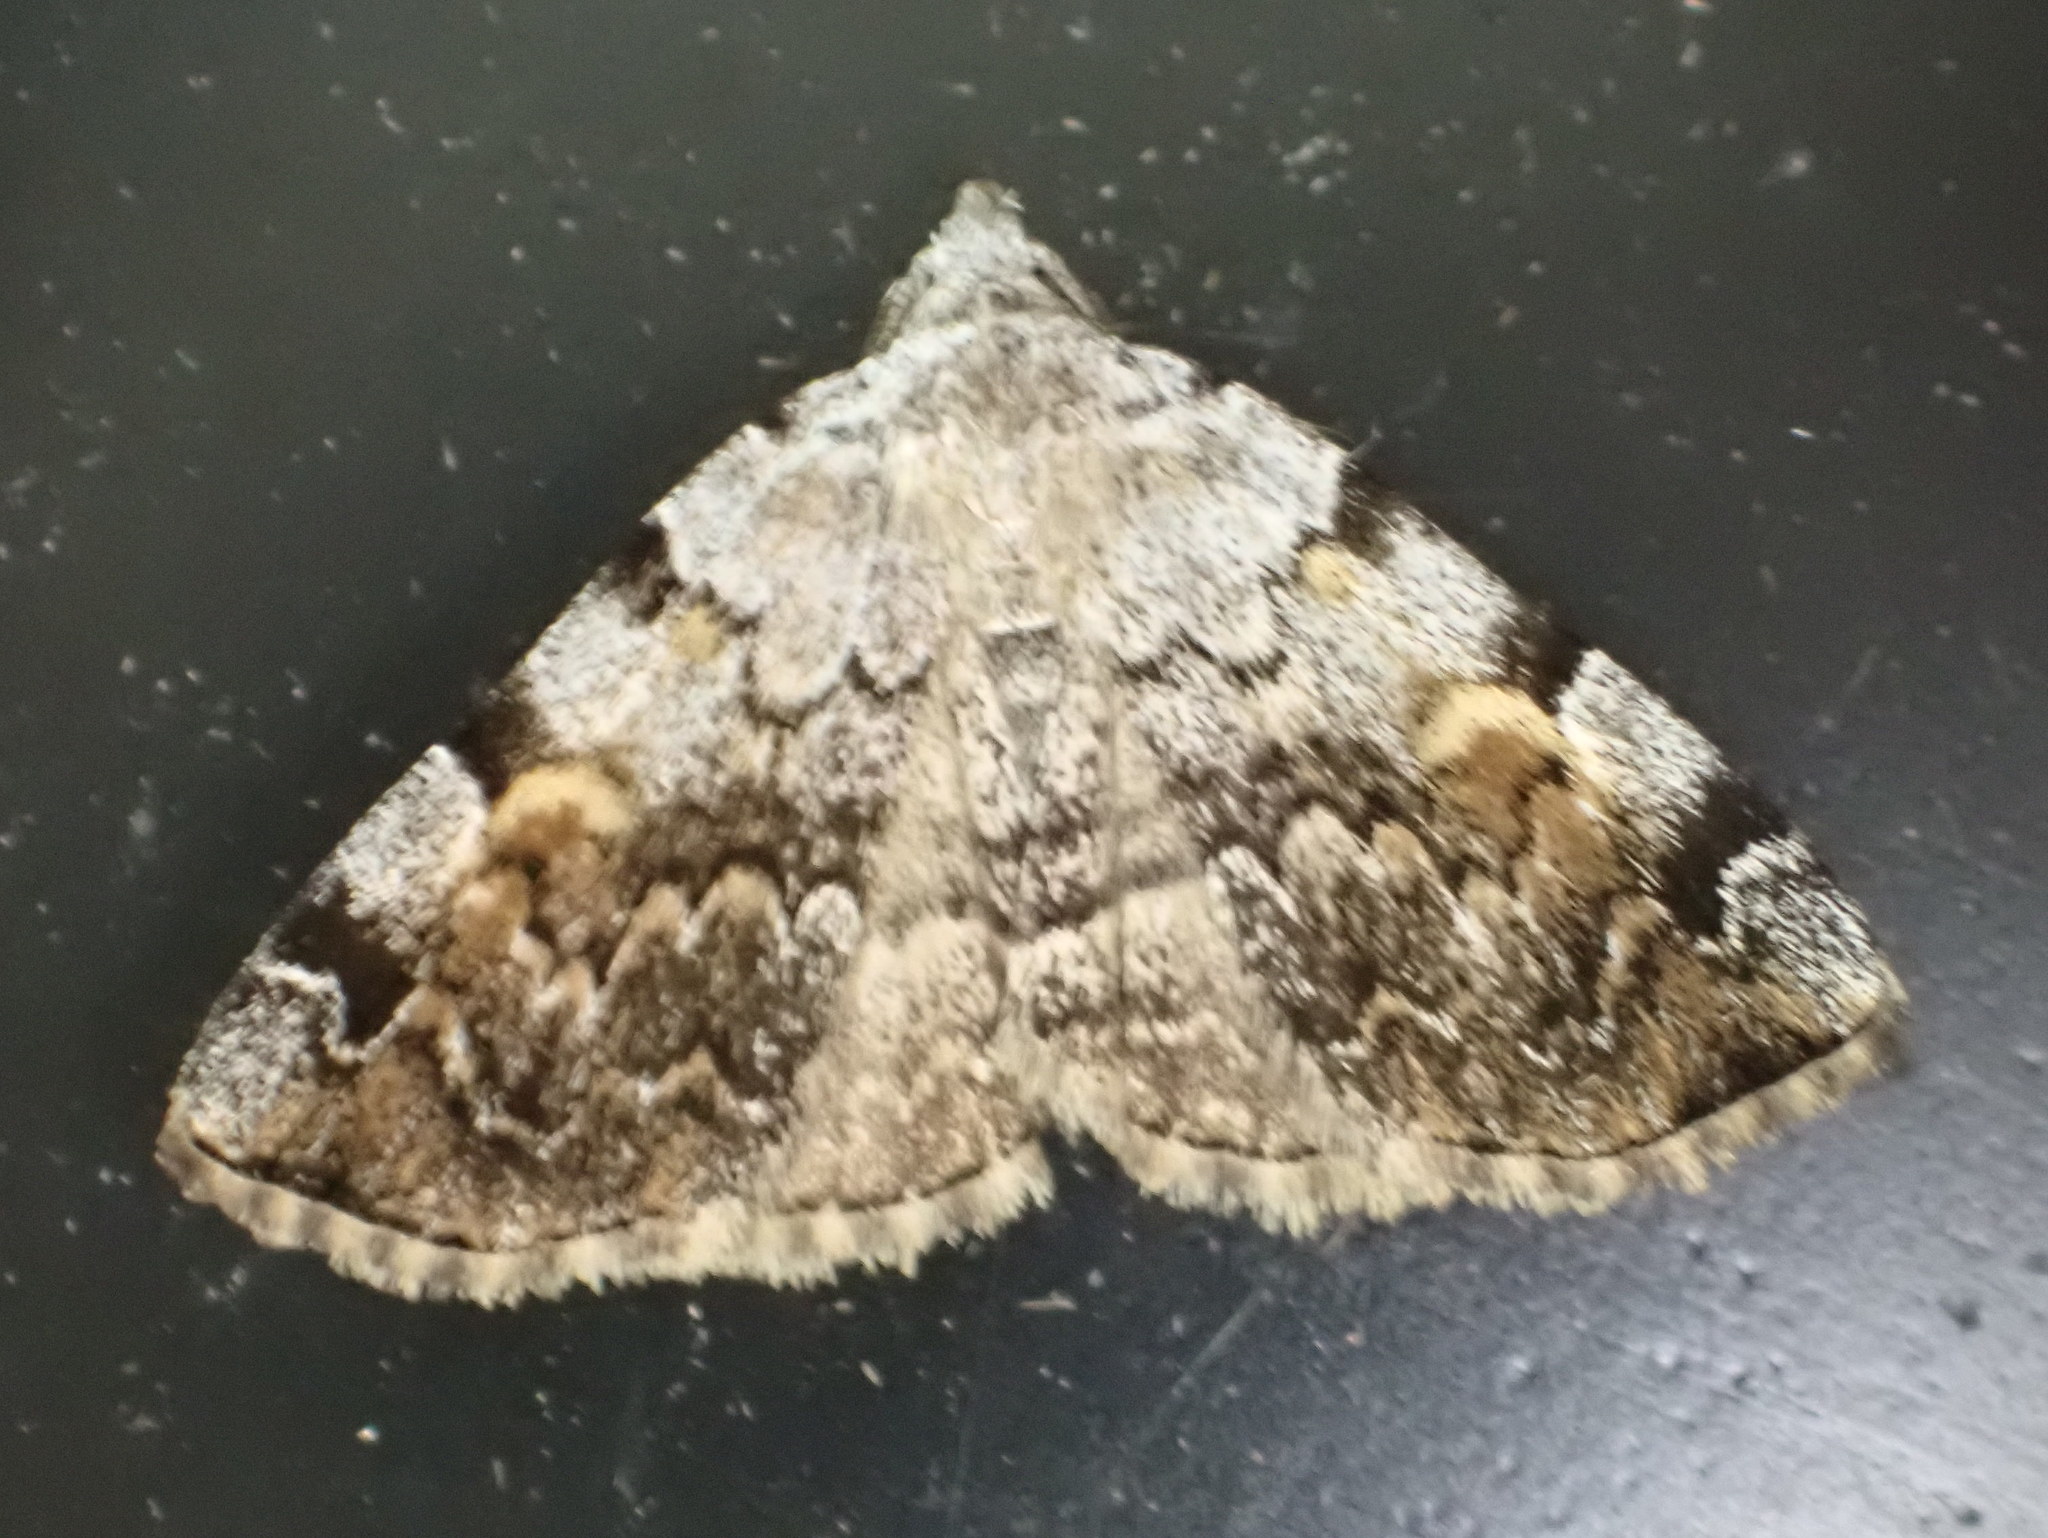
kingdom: Animalia
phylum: Arthropoda
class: Insecta
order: Lepidoptera
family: Erebidae
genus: Idia
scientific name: Idia americalis
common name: American idia moth
